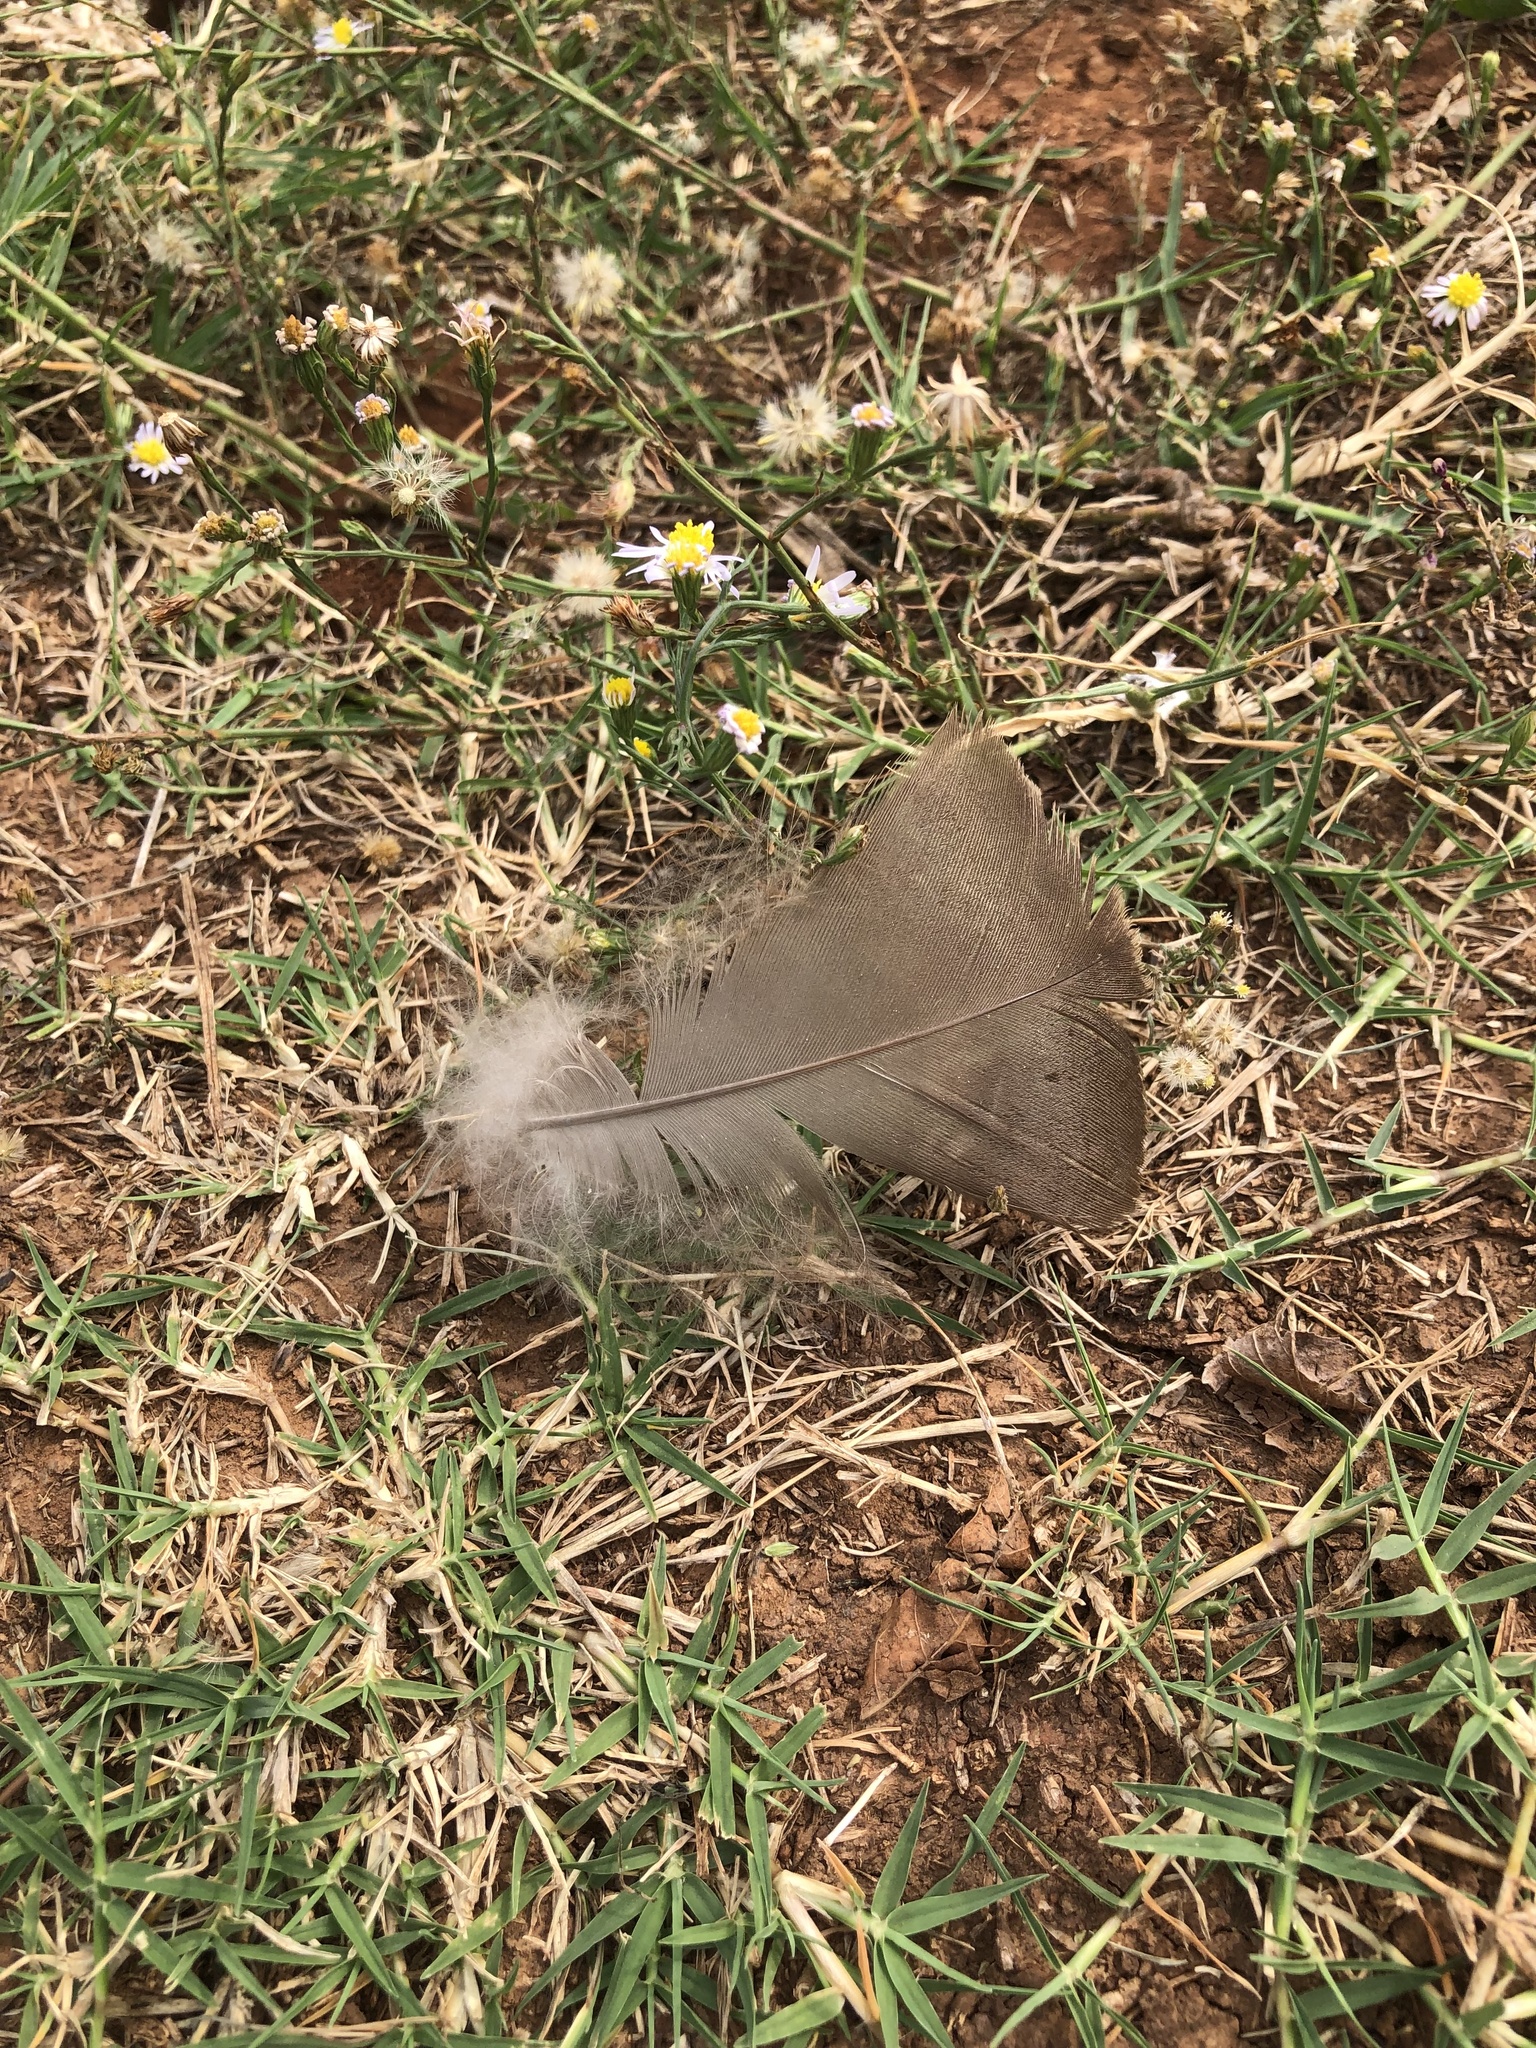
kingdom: Animalia
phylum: Chordata
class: Aves
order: Galliformes
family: Phasianidae
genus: Meleagris
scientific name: Meleagris gallopavo
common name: Wild turkey
